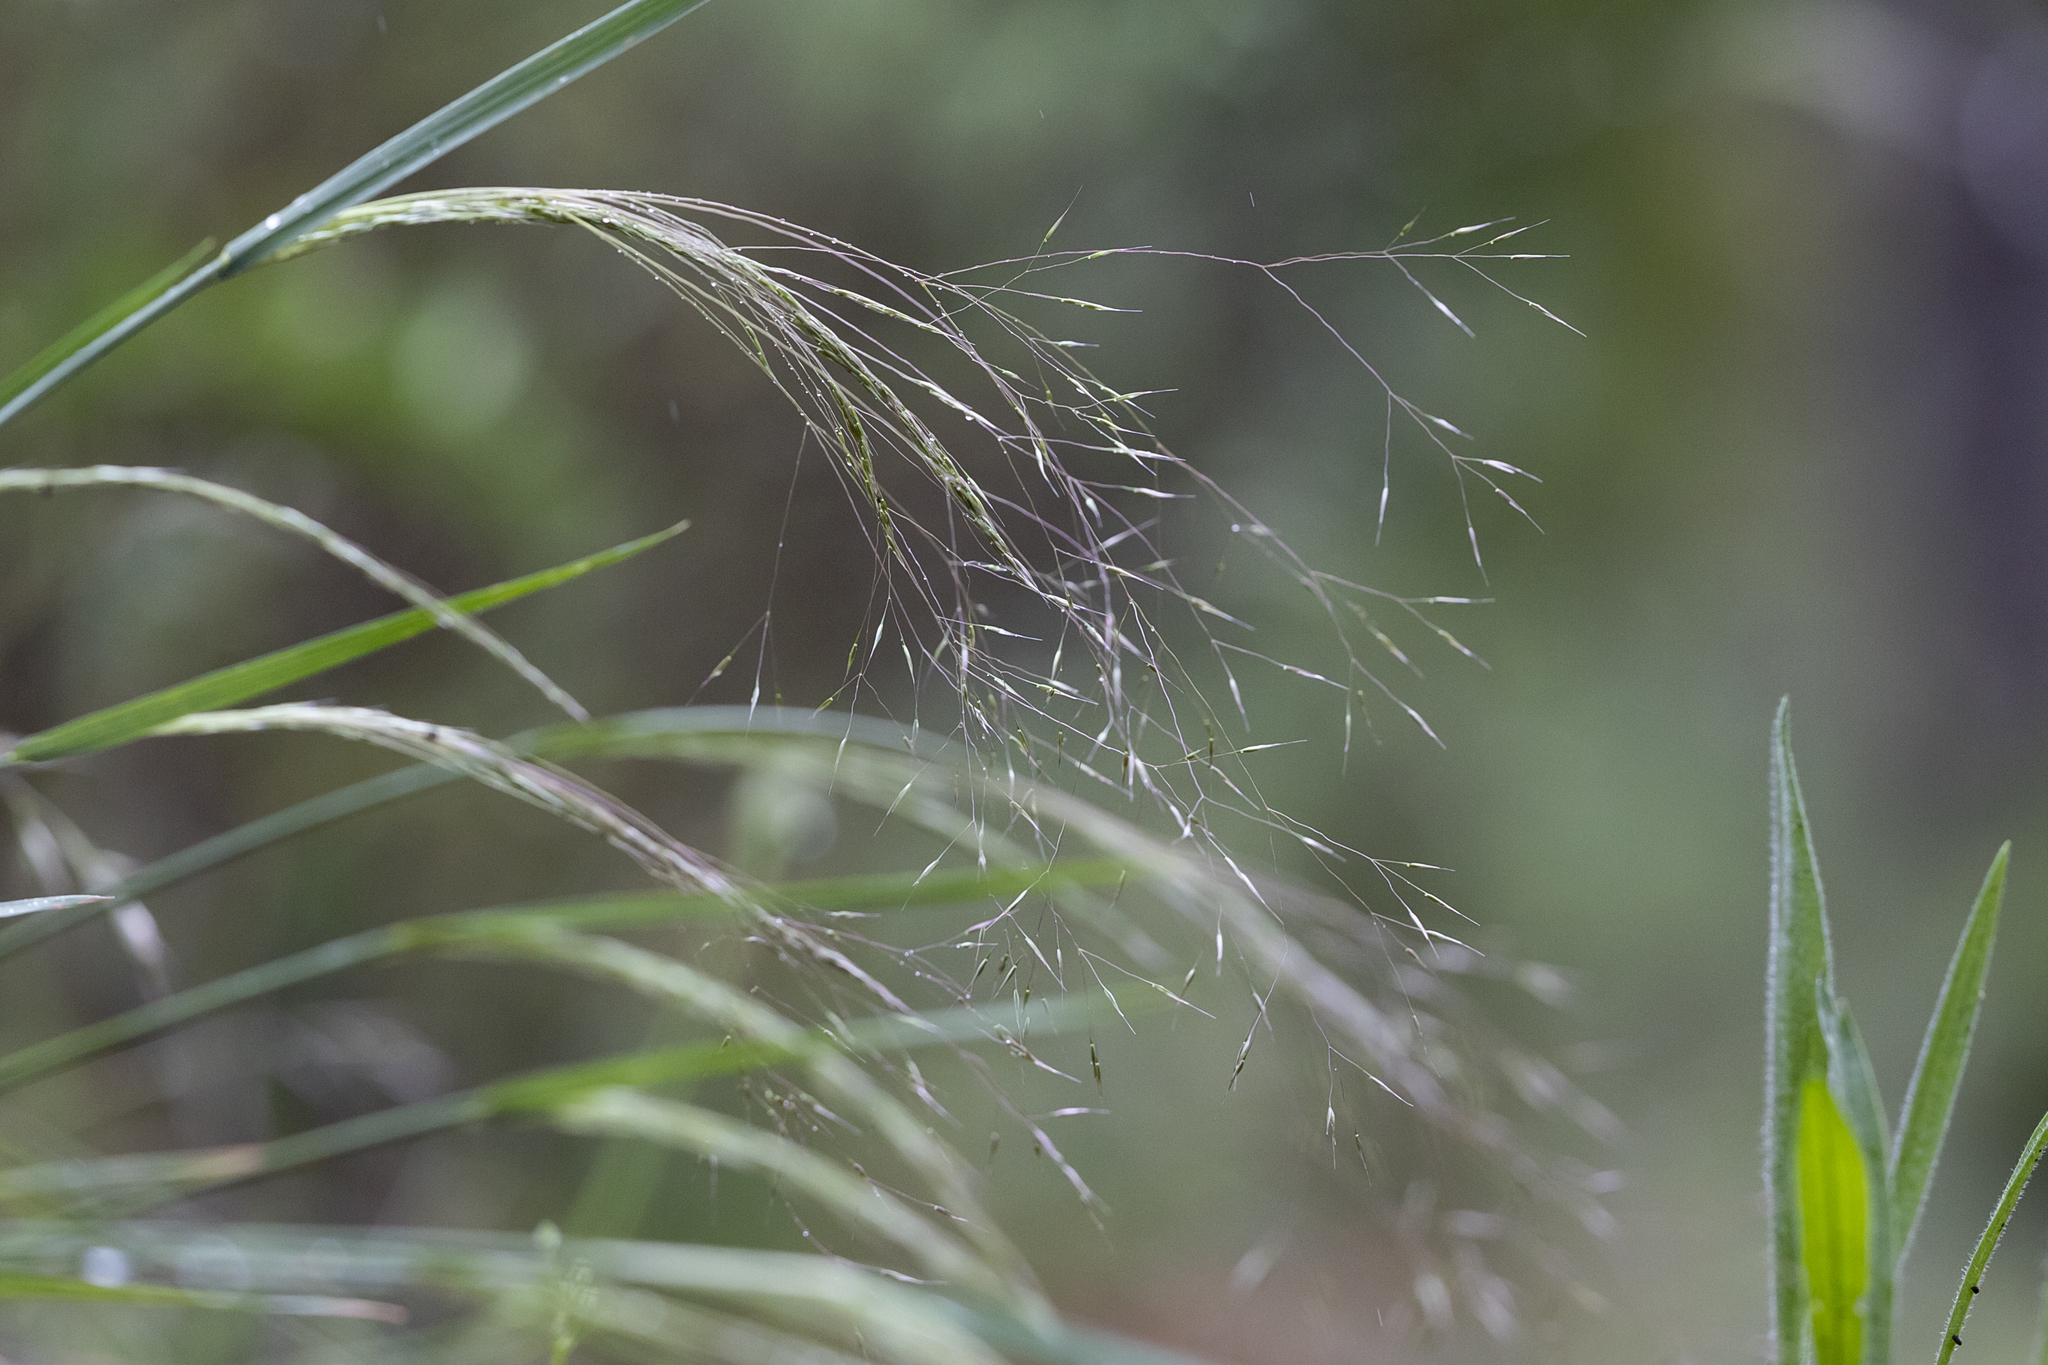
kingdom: Plantae
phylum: Tracheophyta
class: Liliopsida
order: Poales
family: Poaceae
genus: Lachnagrostis
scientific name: Lachnagrostis aemula
